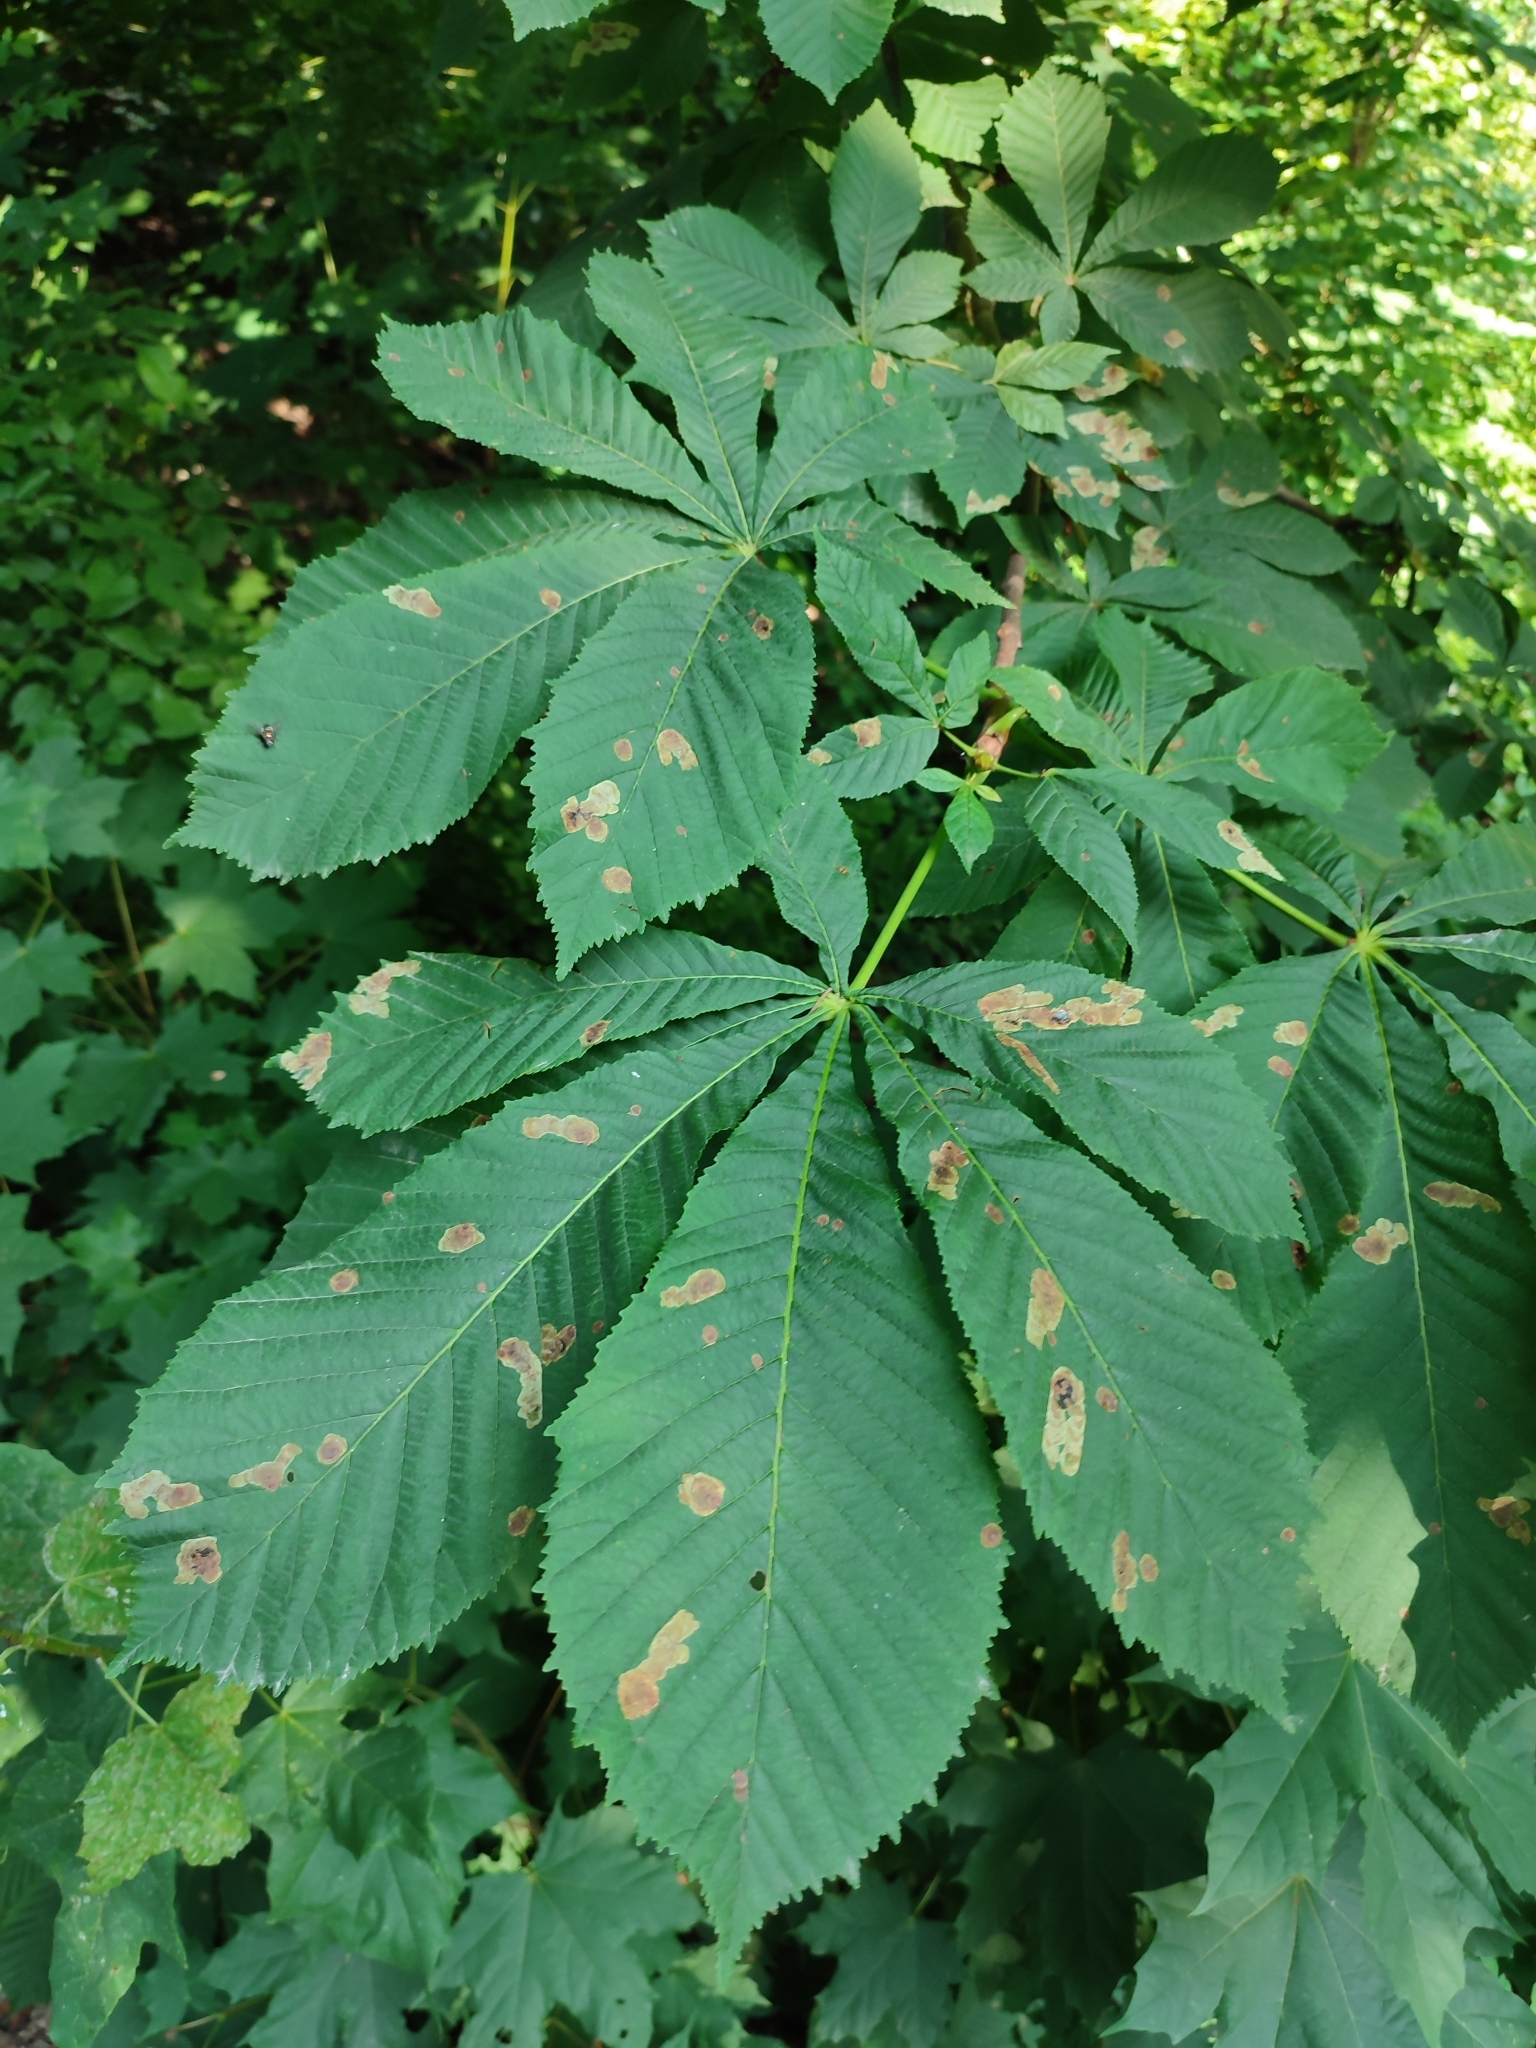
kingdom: Animalia
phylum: Arthropoda
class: Insecta
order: Lepidoptera
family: Gracillariidae
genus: Cameraria
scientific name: Cameraria ohridella
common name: Horse-chestnut leaf-miner
